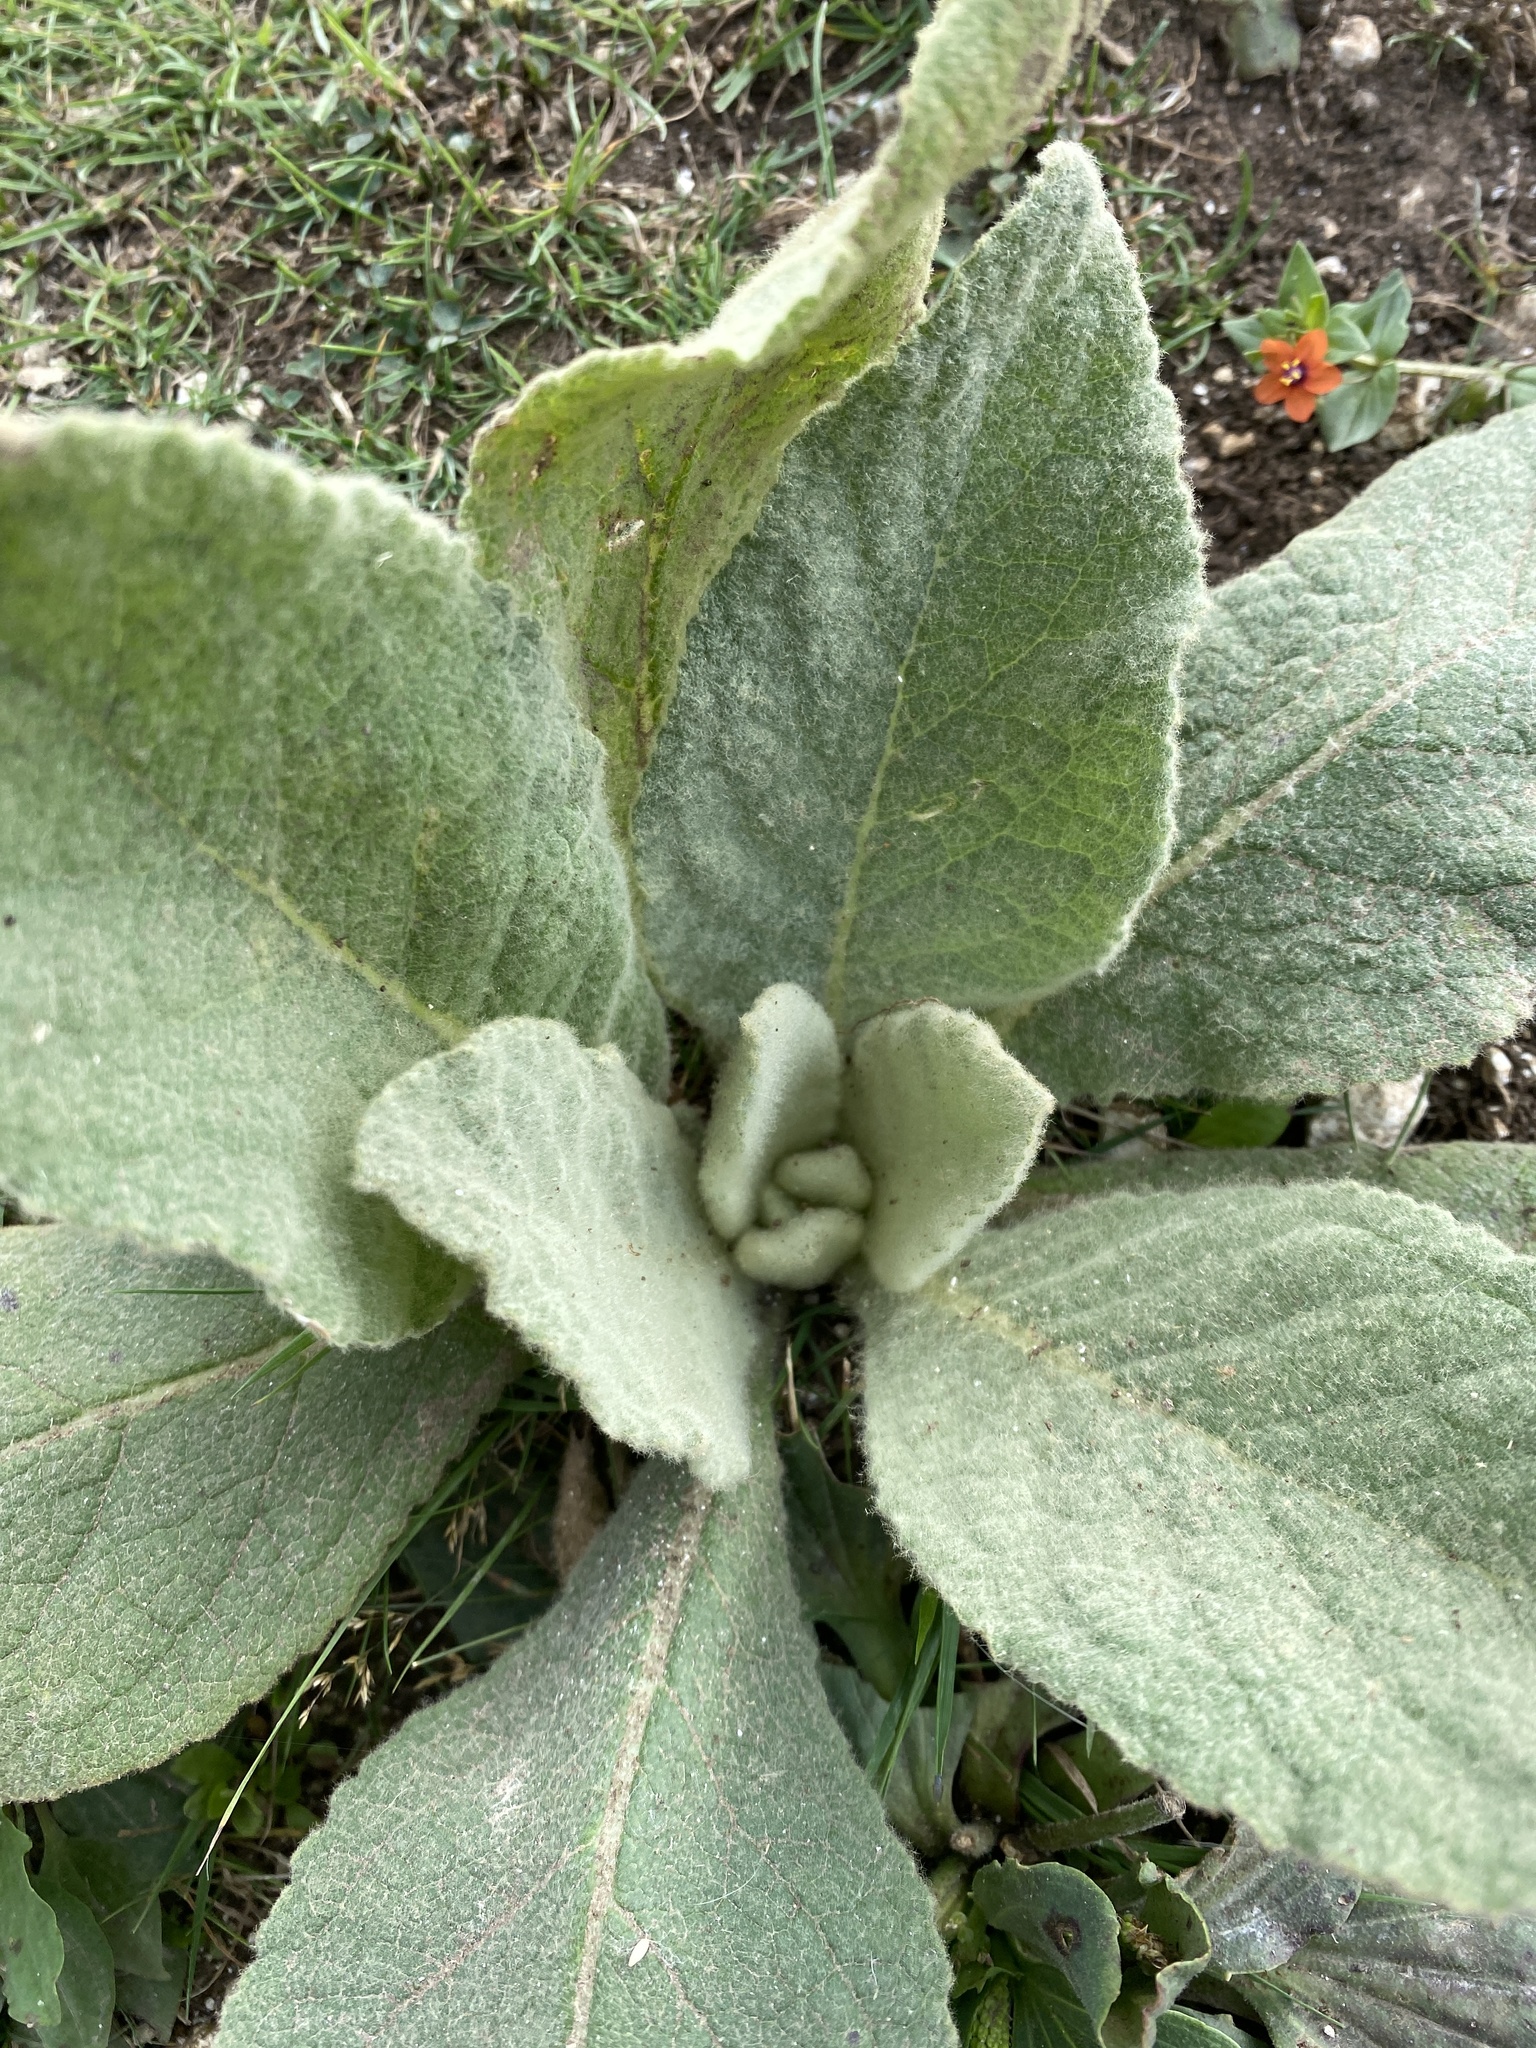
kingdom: Plantae
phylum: Tracheophyta
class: Magnoliopsida
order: Lamiales
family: Scrophulariaceae
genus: Verbascum
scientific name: Verbascum thapsus
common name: Common mullein
